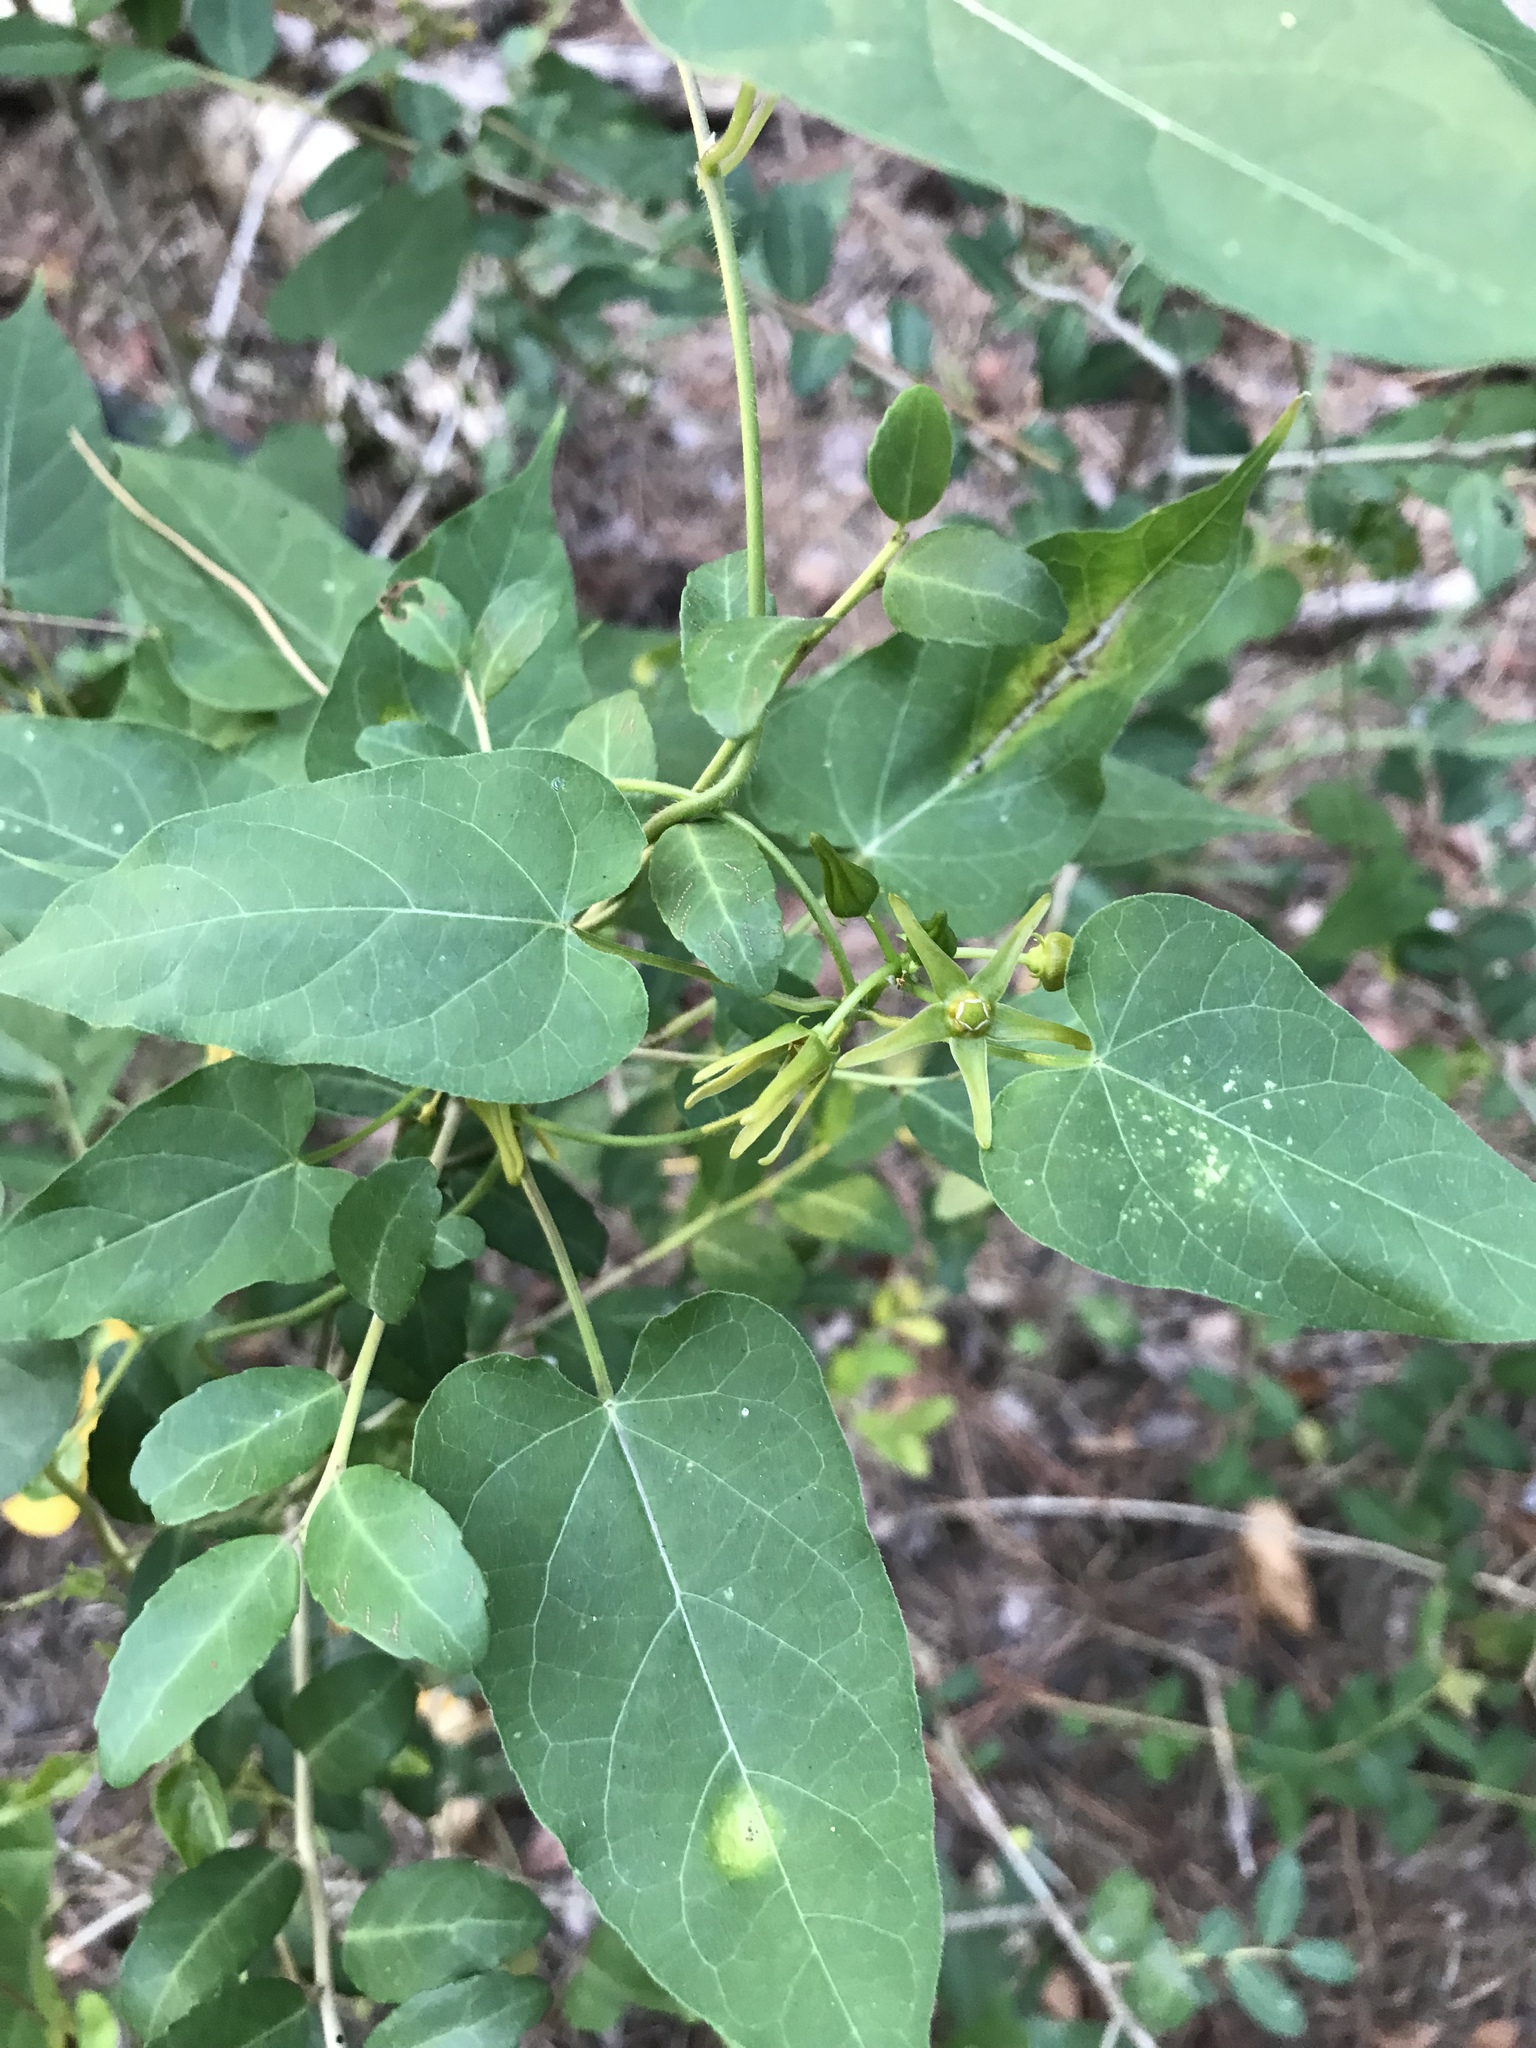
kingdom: Plantae
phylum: Tracheophyta
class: Magnoliopsida
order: Gentianales
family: Apocynaceae
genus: Gonolobus
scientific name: Gonolobus suberosus
